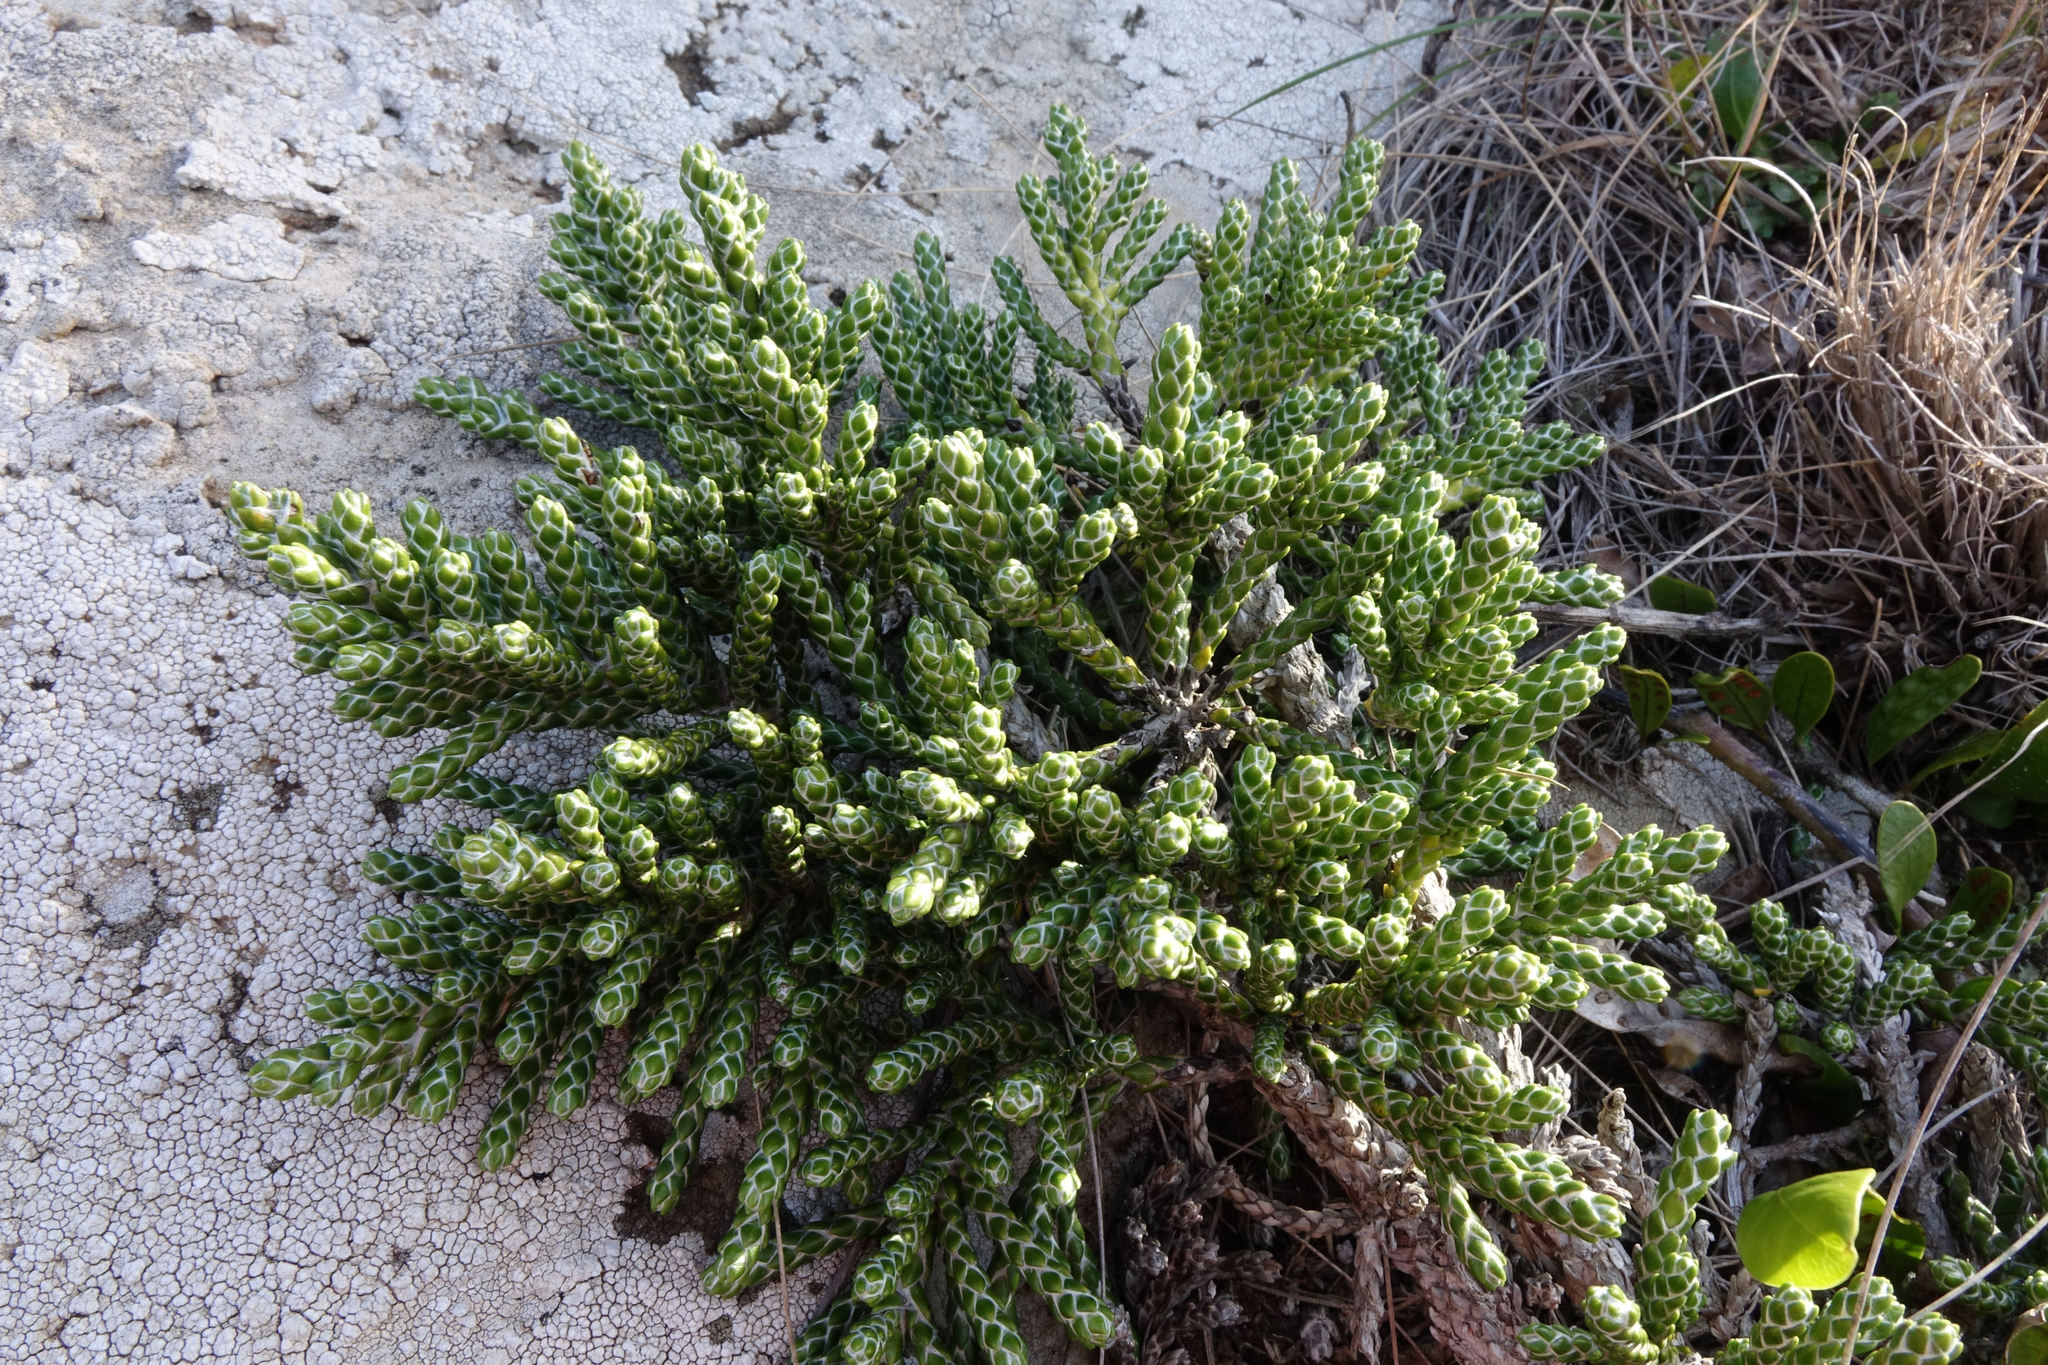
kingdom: Plantae
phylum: Tracheophyta
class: Magnoliopsida
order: Asterales
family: Asteraceae
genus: Ozothamnus
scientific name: Ozothamnus selago
